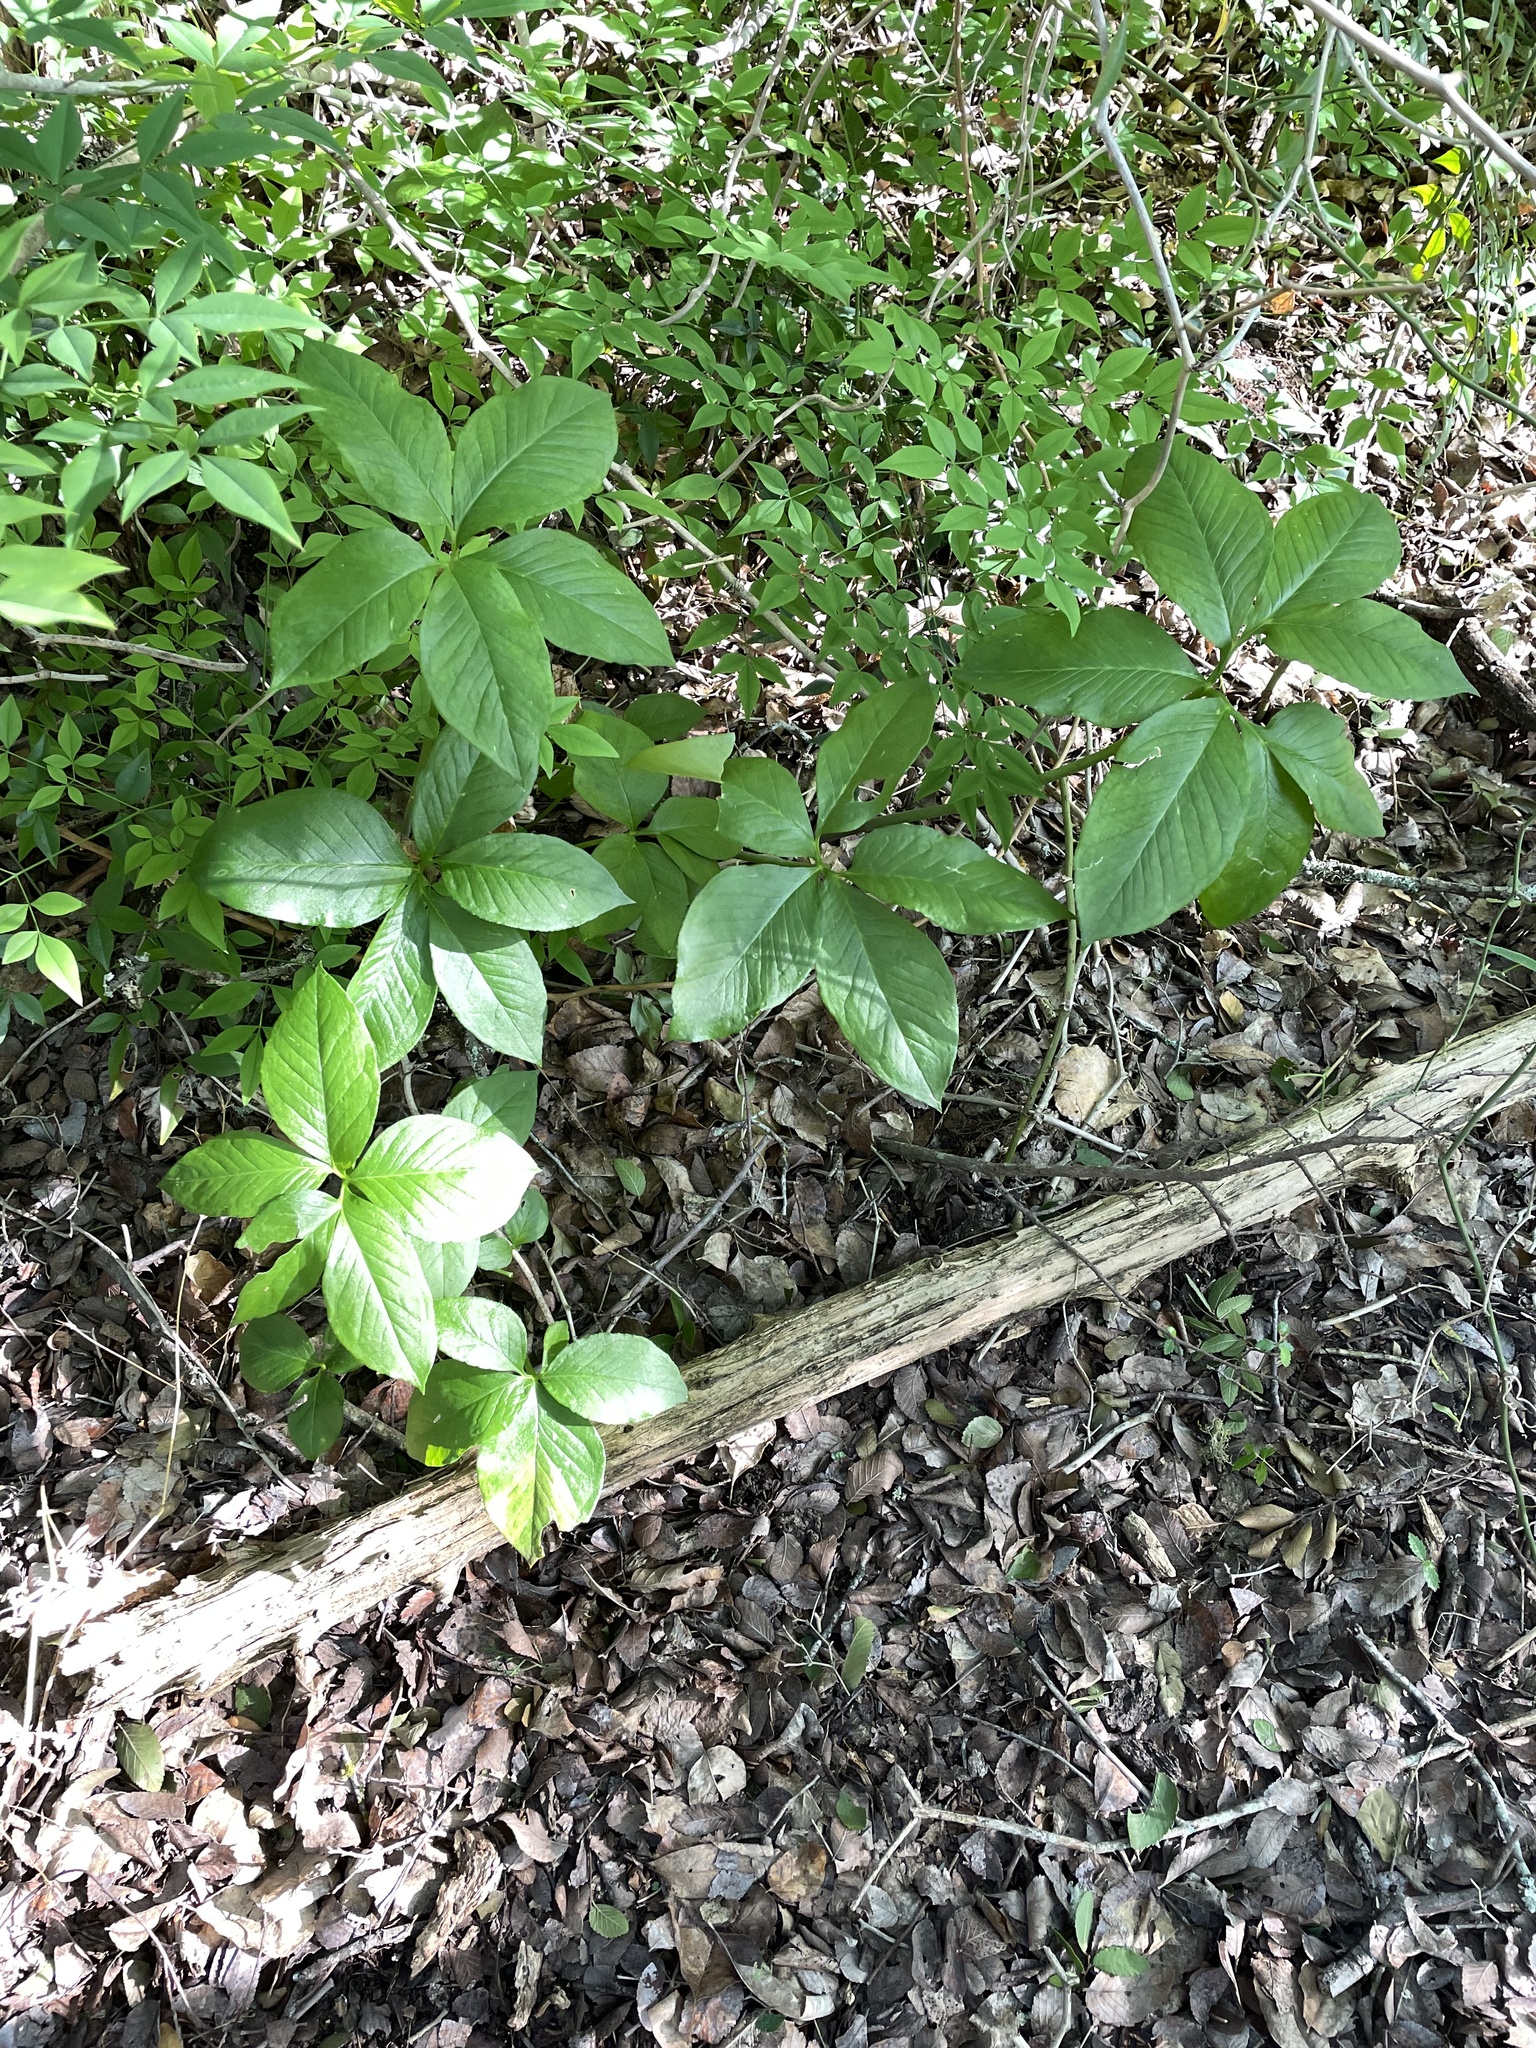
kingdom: Plantae
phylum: Tracheophyta
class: Liliopsida
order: Alismatales
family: Araceae
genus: Arisaema
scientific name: Arisaema dracontium
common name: Dragon-arum
